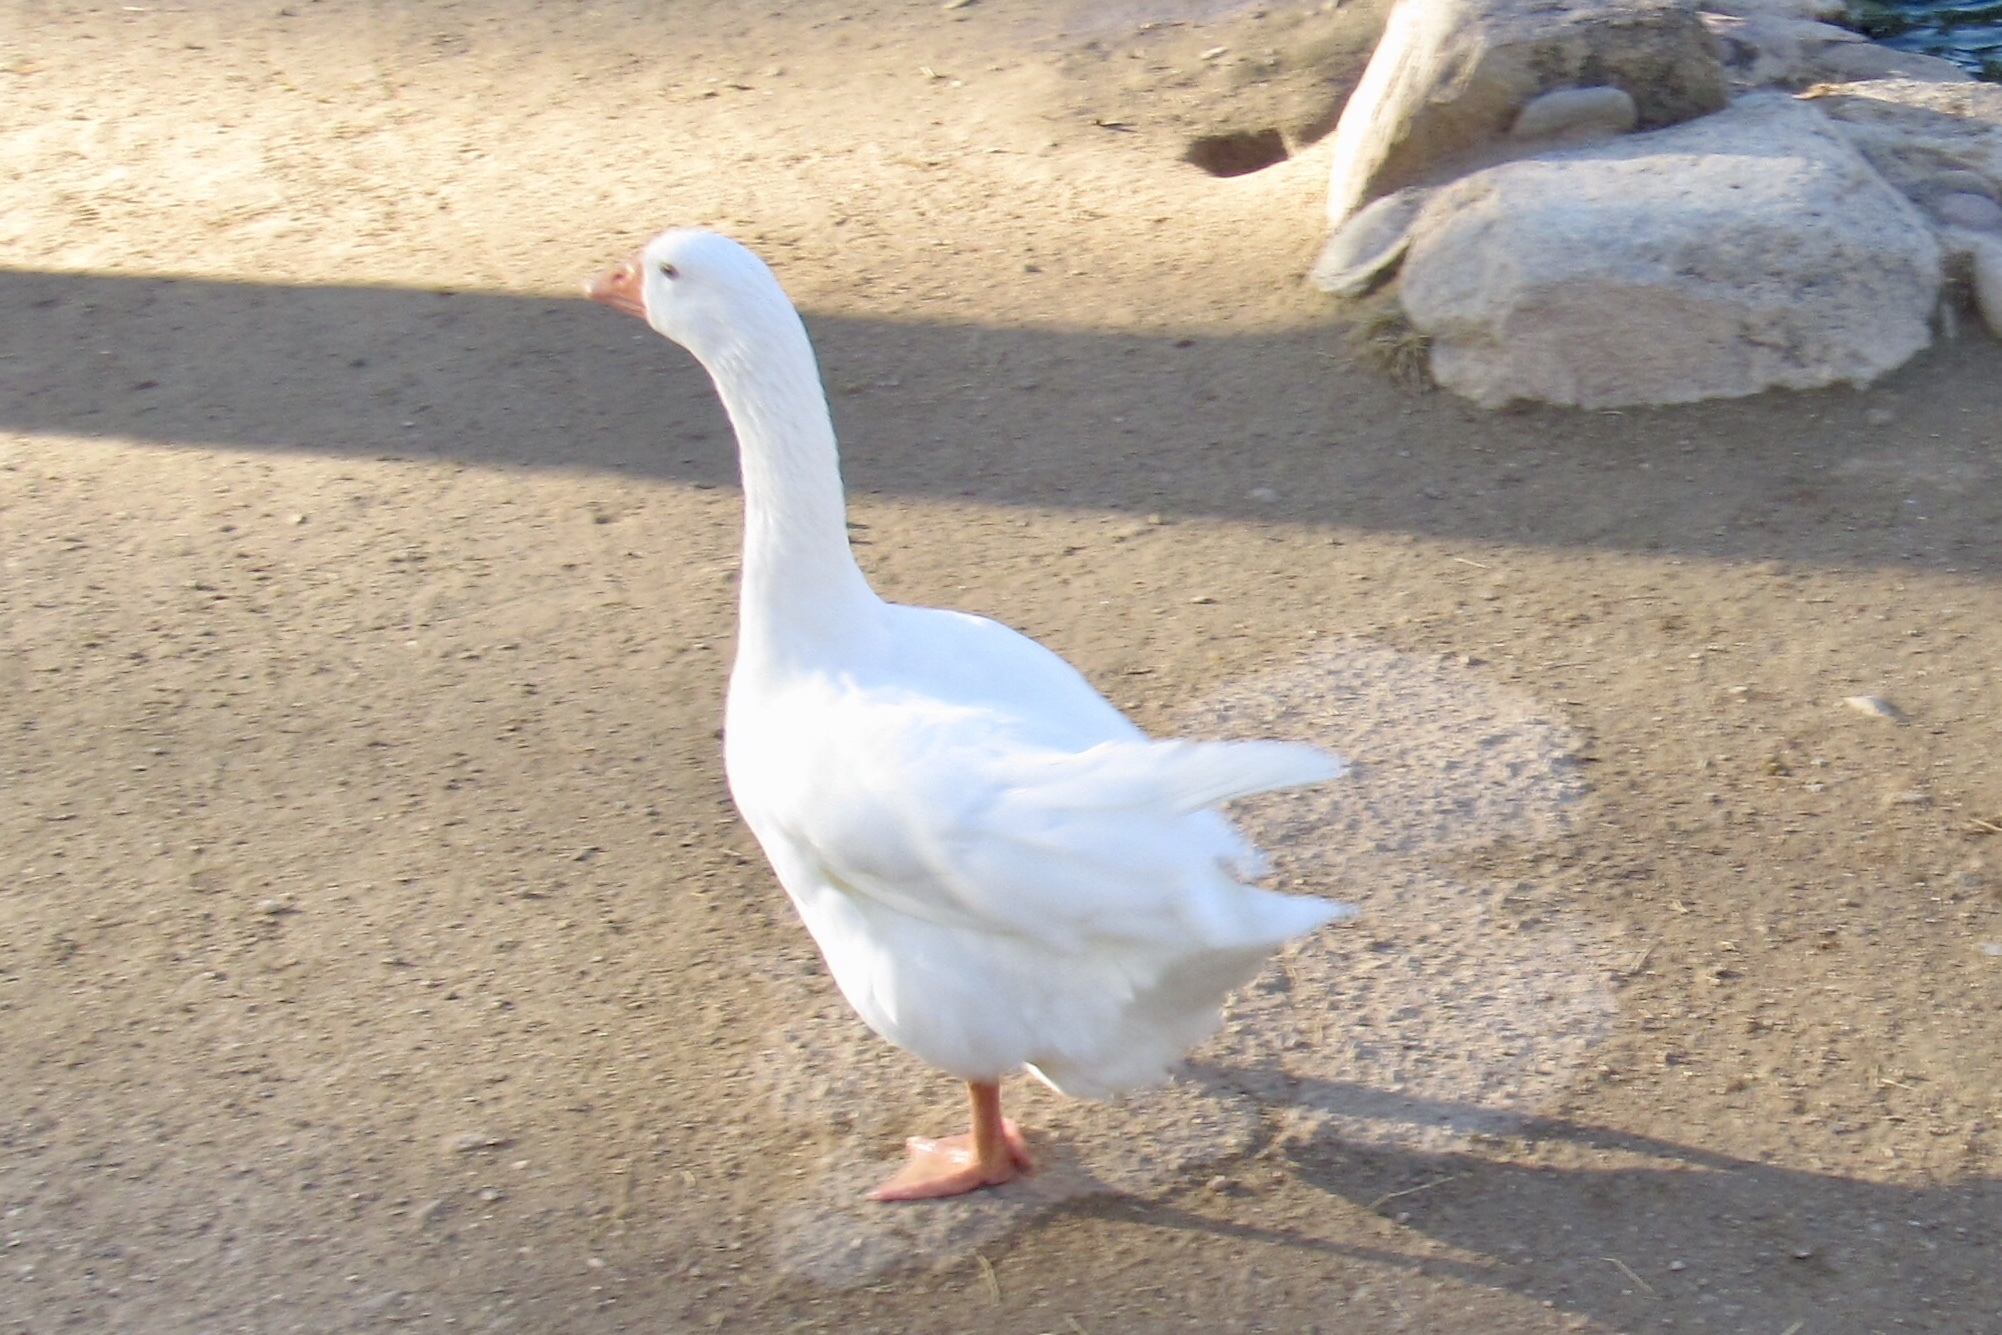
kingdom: Animalia
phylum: Chordata
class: Aves
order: Anseriformes
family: Anatidae
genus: Anser
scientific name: Anser anser
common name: Greylag goose
